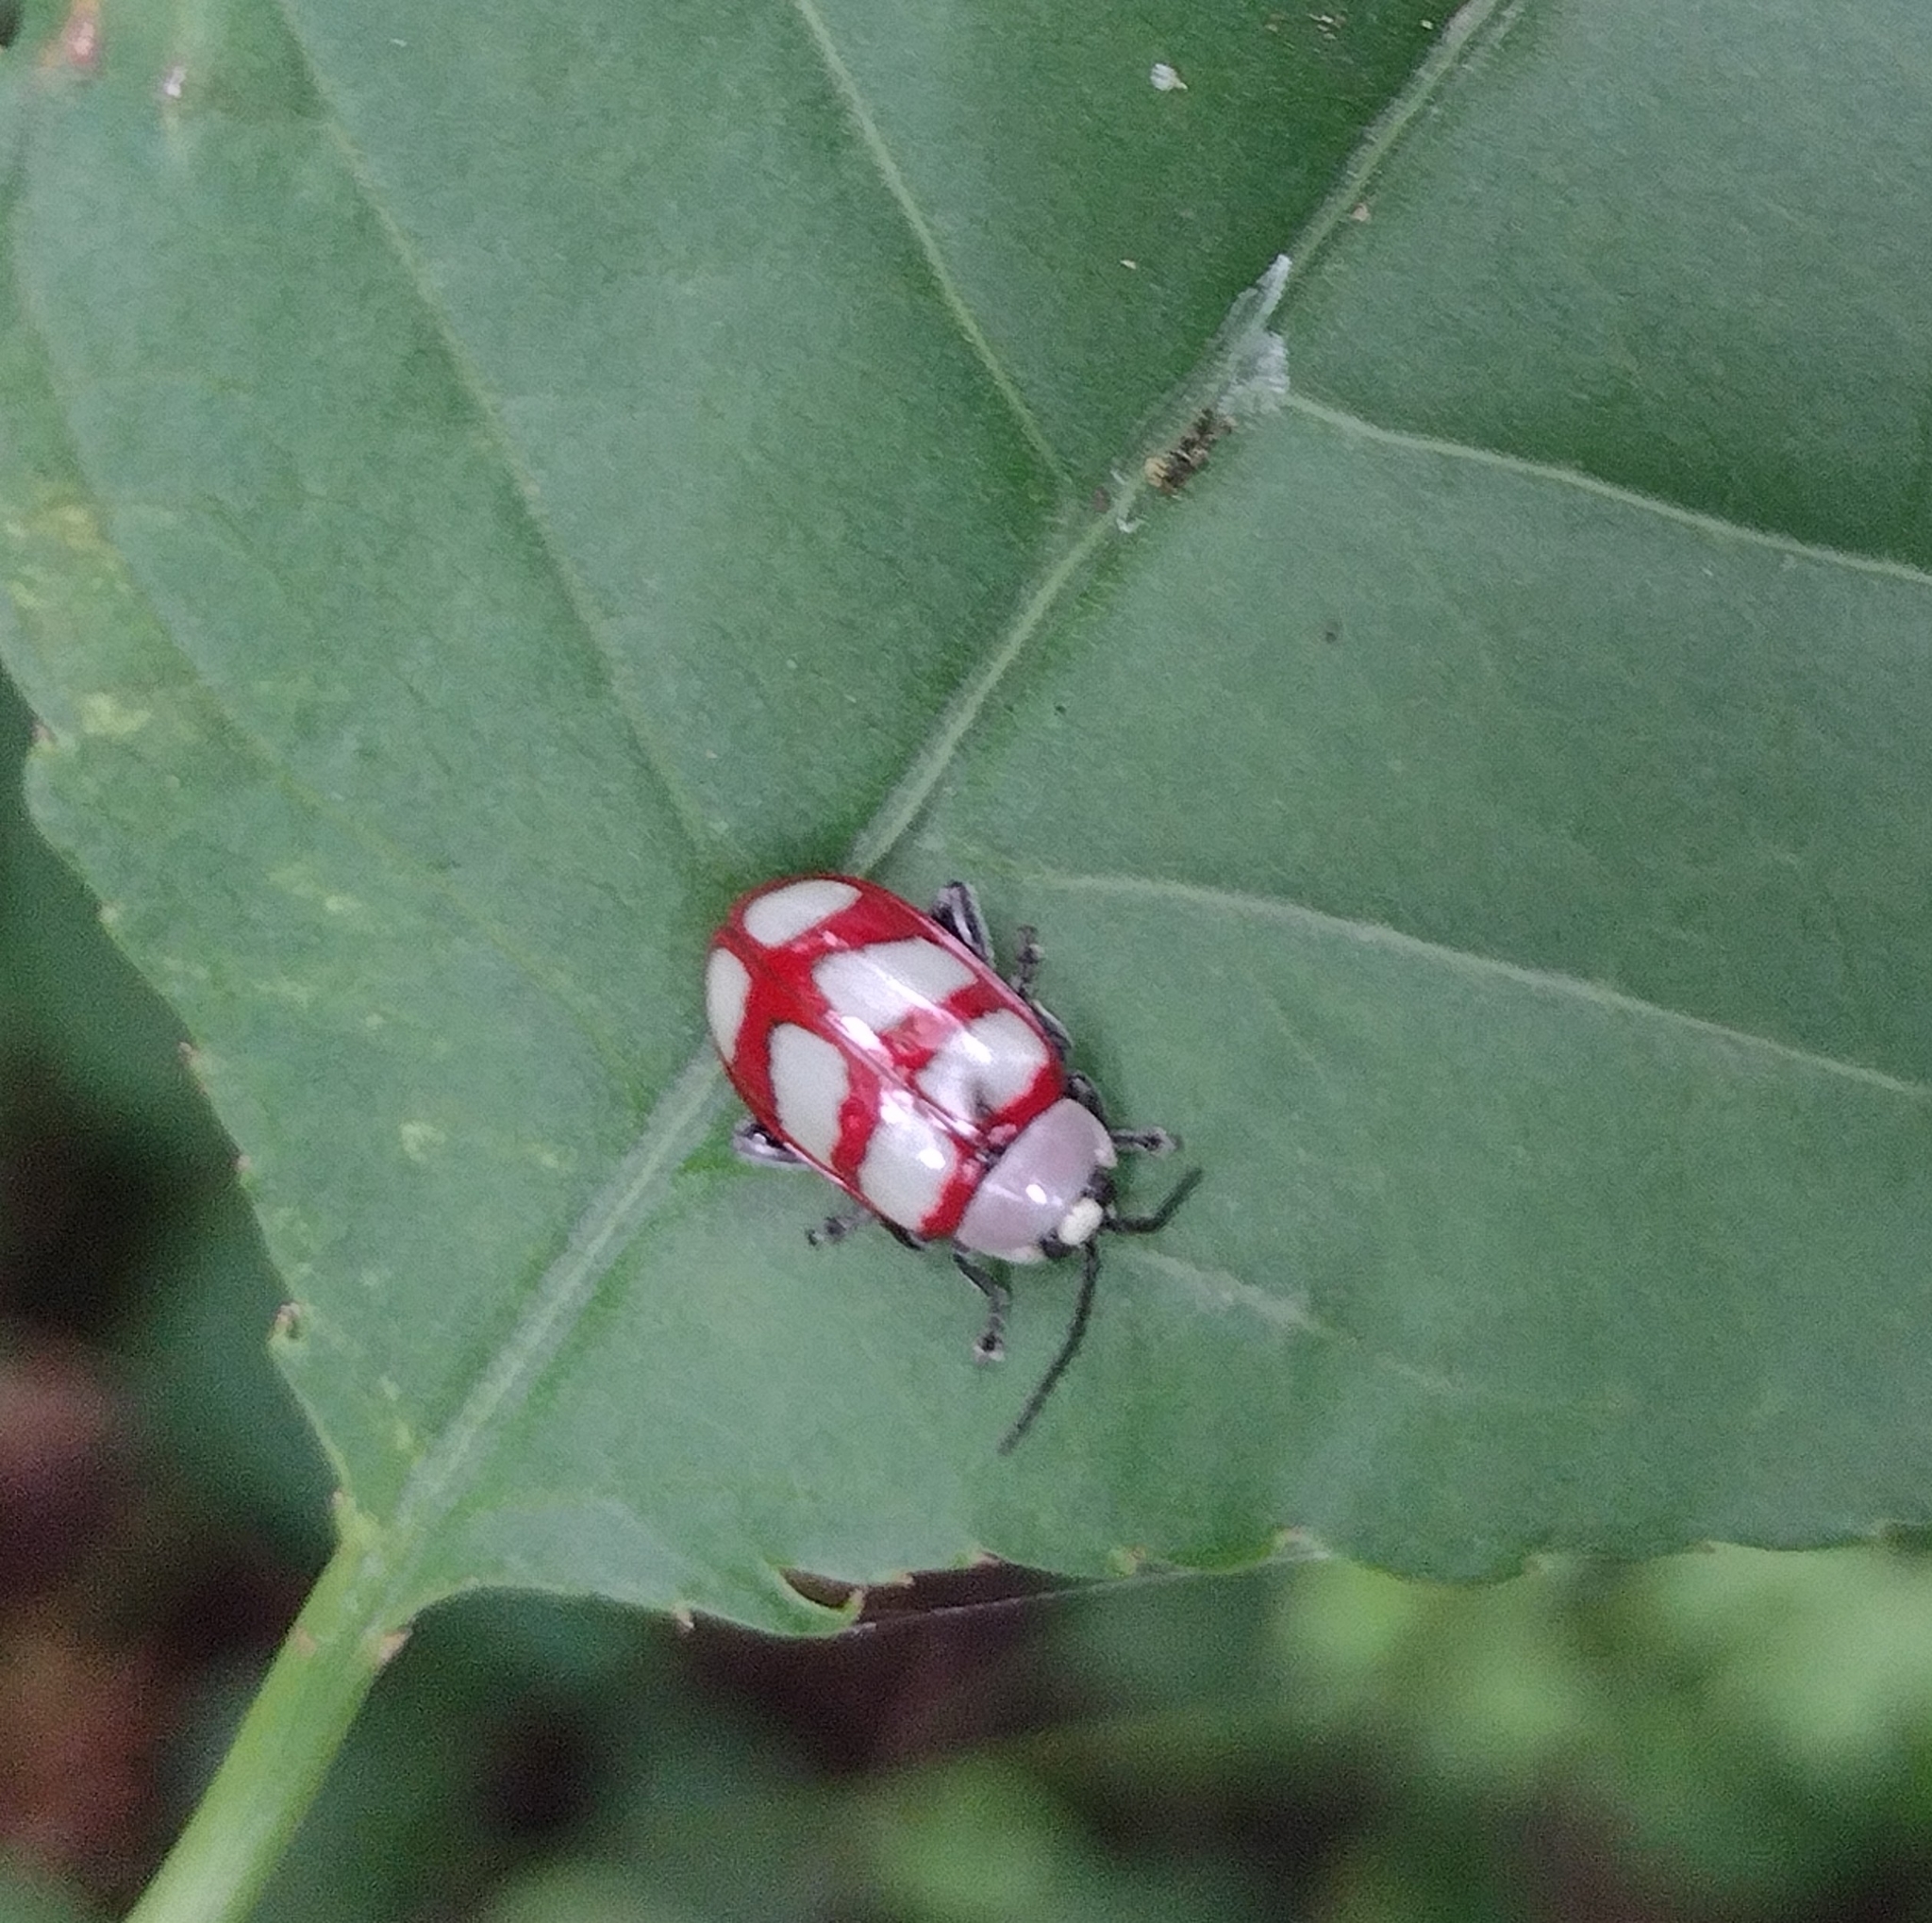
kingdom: Animalia
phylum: Arthropoda
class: Insecta
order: Coleoptera
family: Chrysomelidae
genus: Omophoita
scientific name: Omophoita personata
